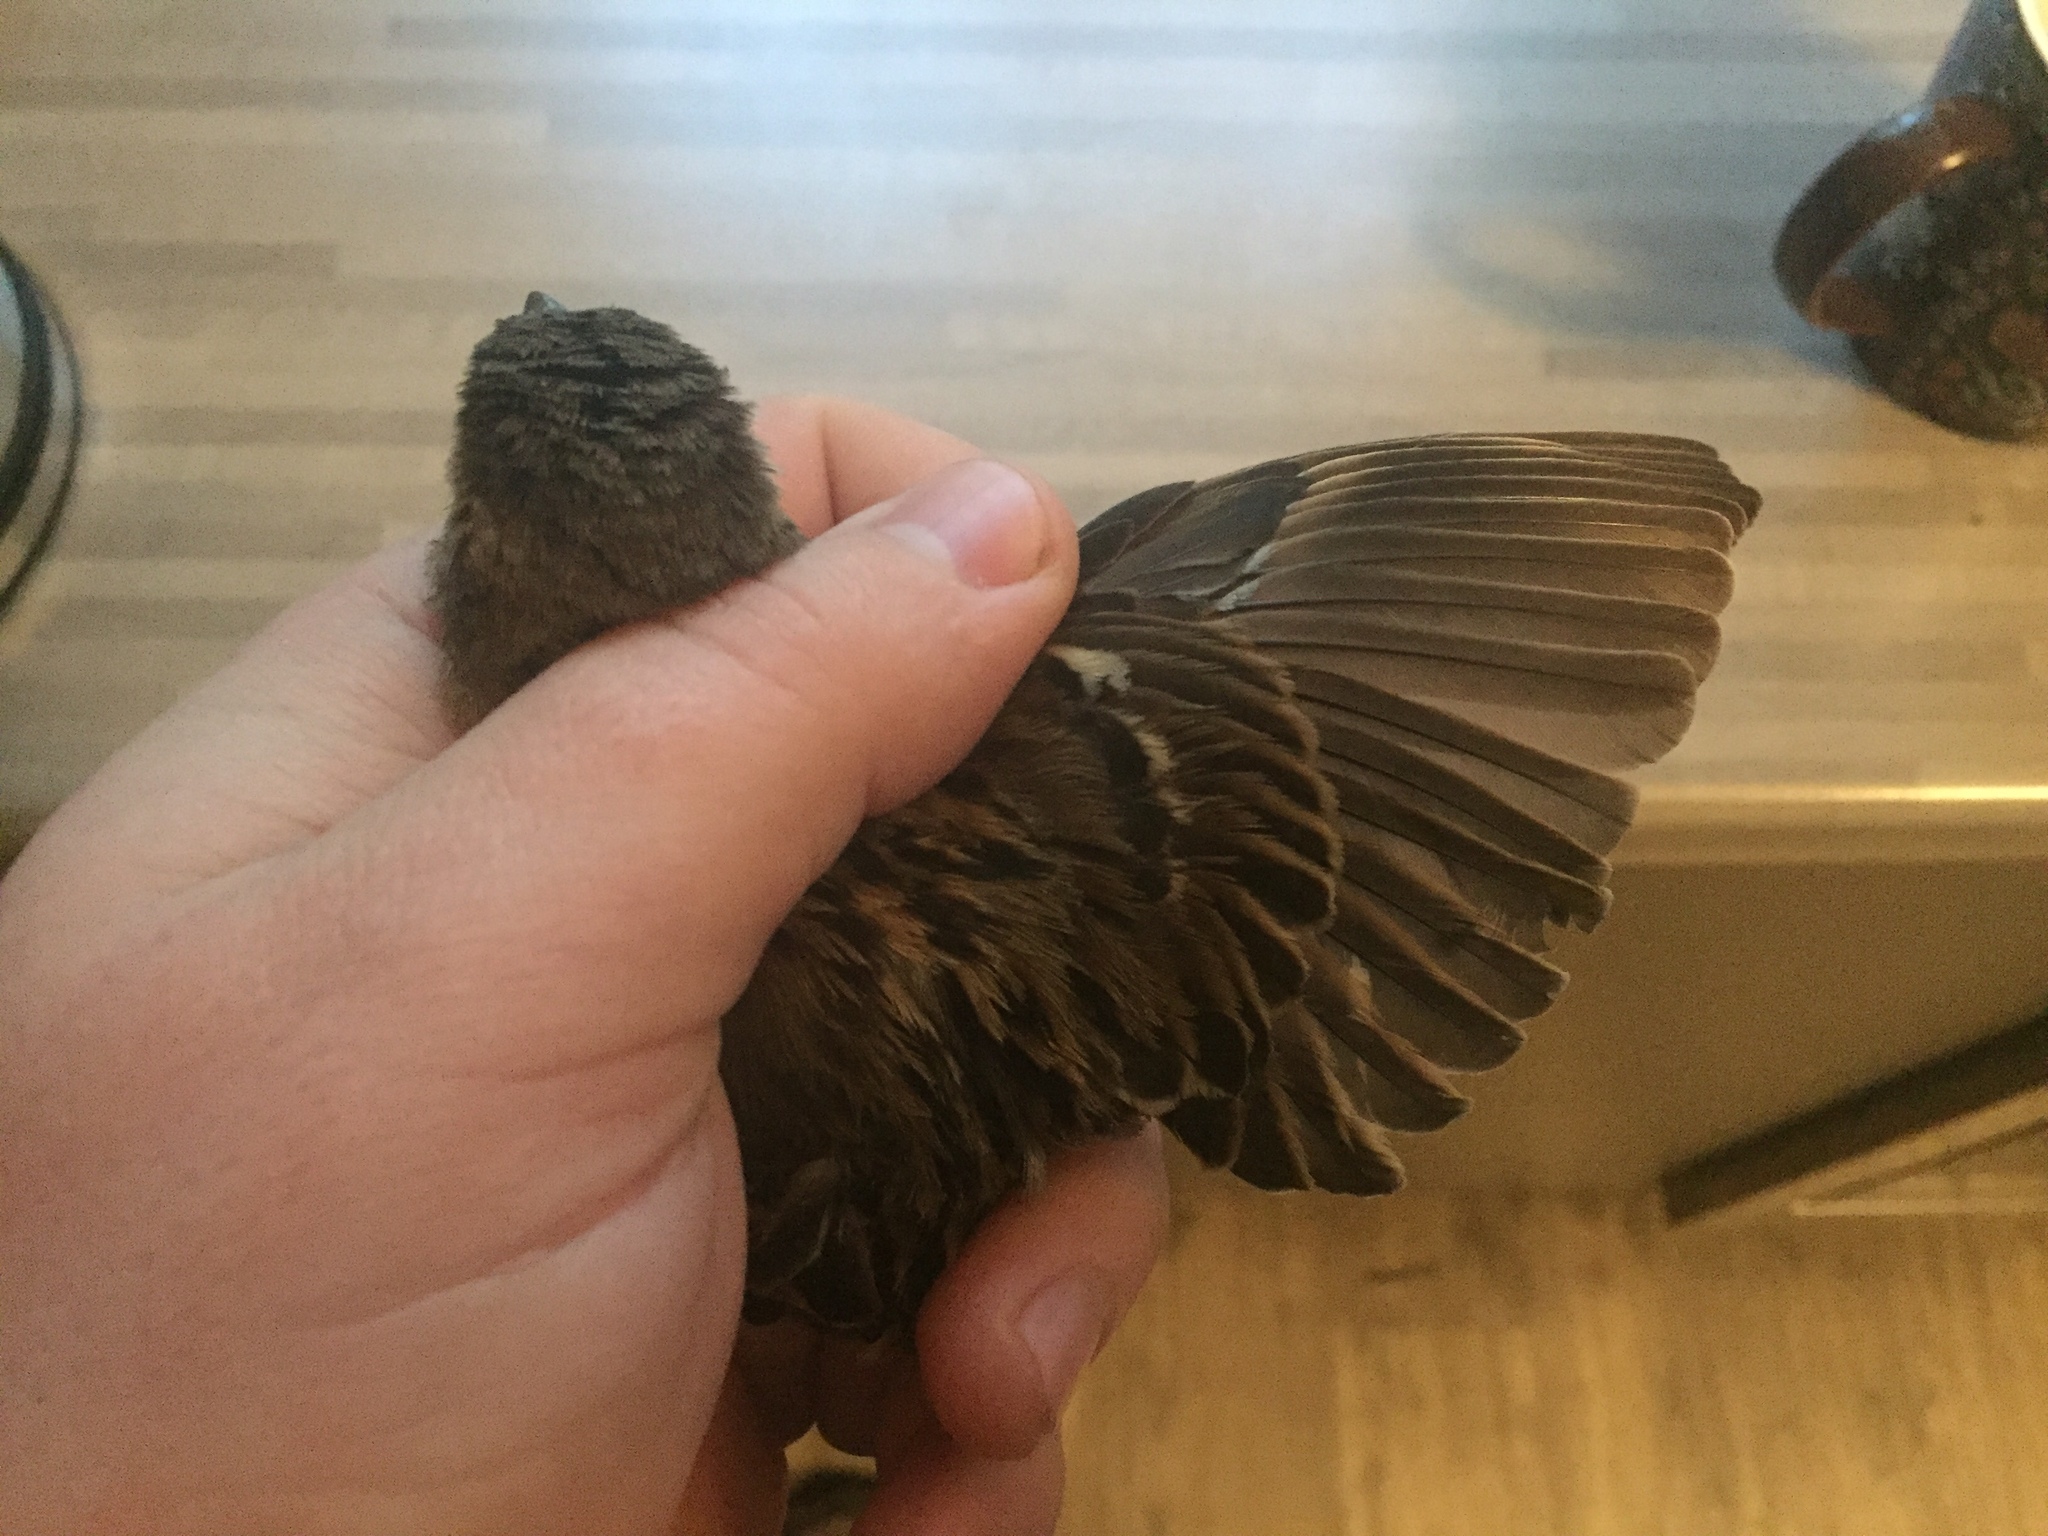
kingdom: Animalia
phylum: Chordata
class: Aves
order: Passeriformes
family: Passeridae
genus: Passer
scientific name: Passer domesticus
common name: House sparrow
